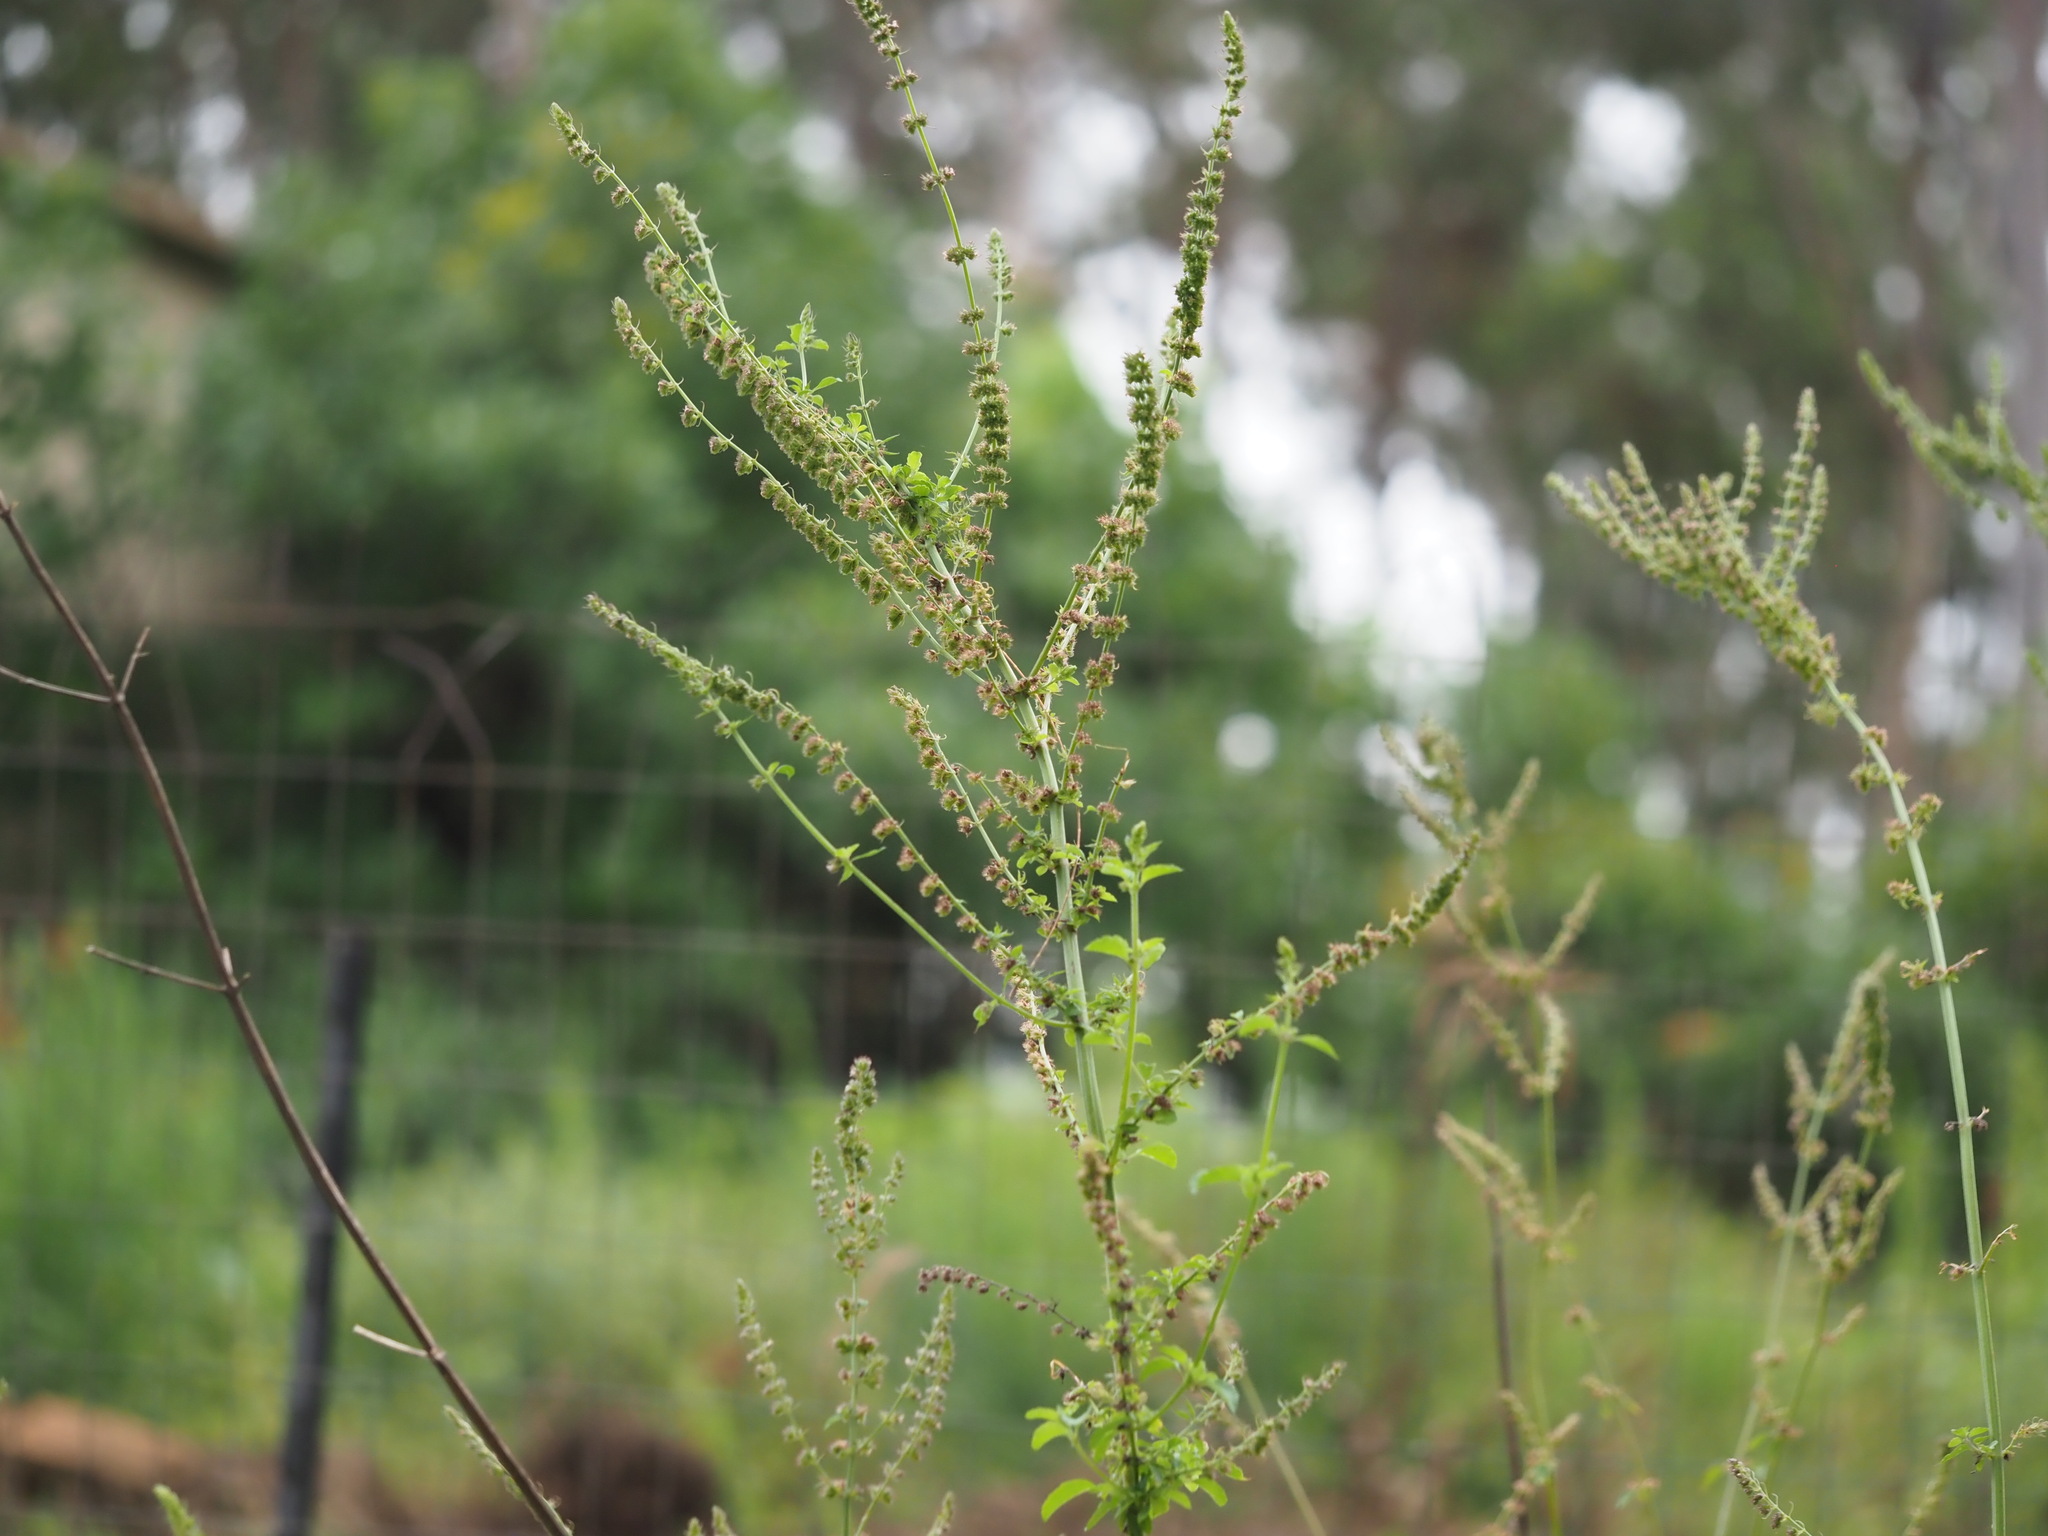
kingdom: Plantae
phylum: Tracheophyta
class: Magnoliopsida
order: Lamiales
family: Lamiaceae
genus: Mesosphaerum
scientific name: Mesosphaerum pectinatum
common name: Comb hyptis
